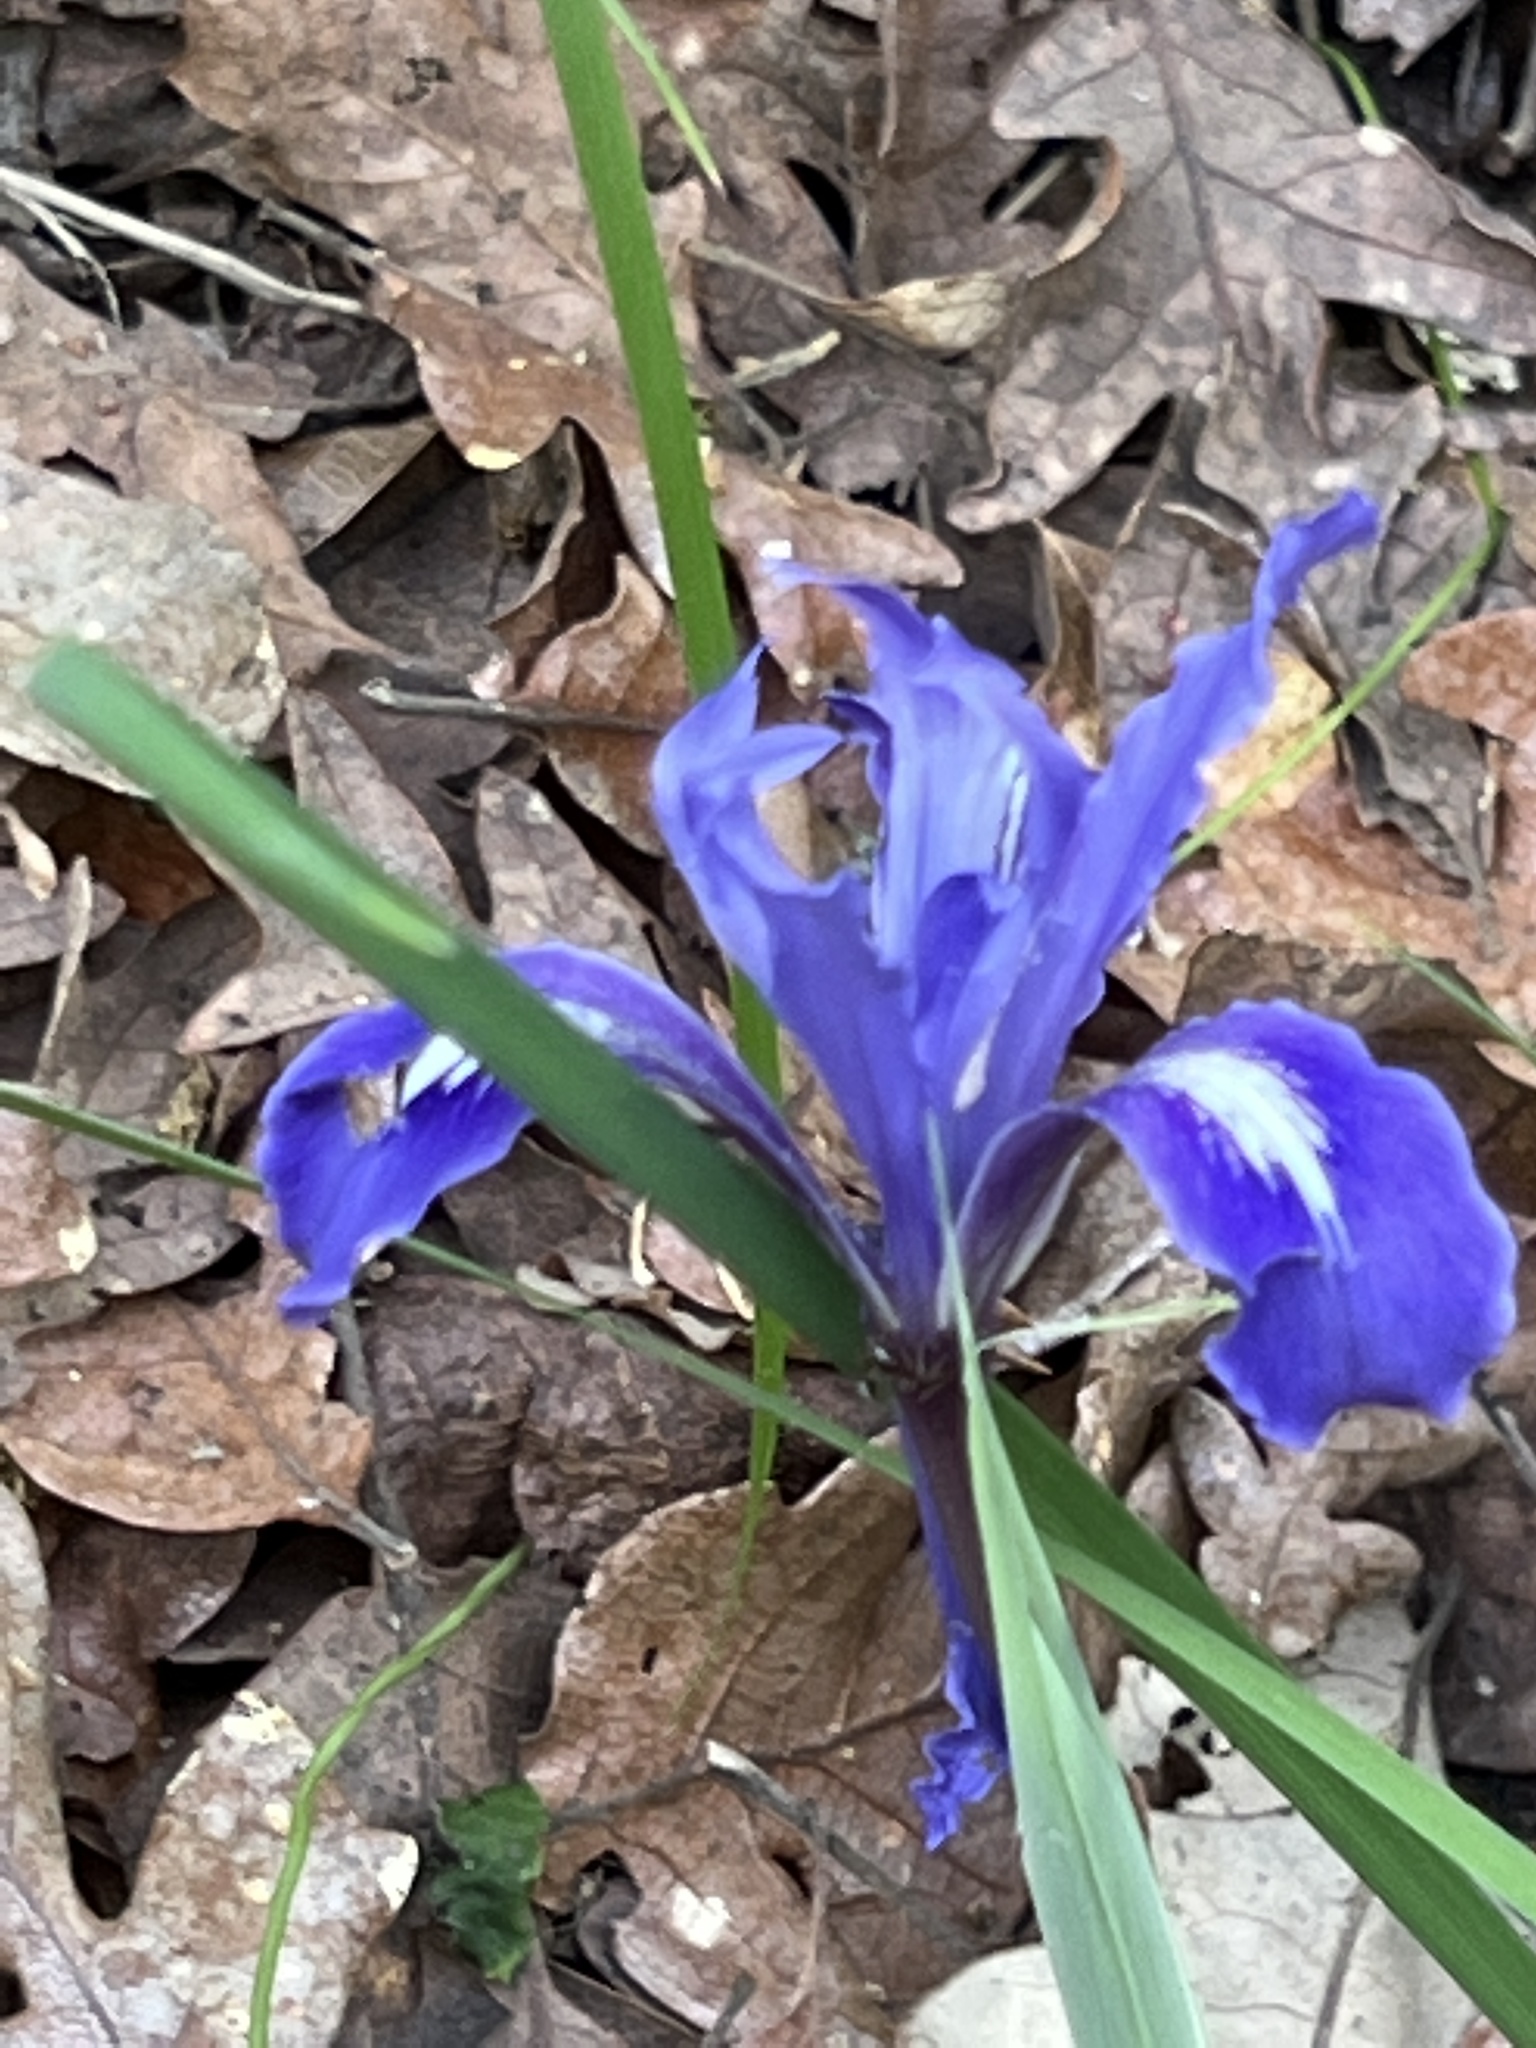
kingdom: Plantae
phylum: Tracheophyta
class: Liliopsida
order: Asparagales
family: Iridaceae
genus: Iris
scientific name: Iris macrosiphon
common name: Ground iris
